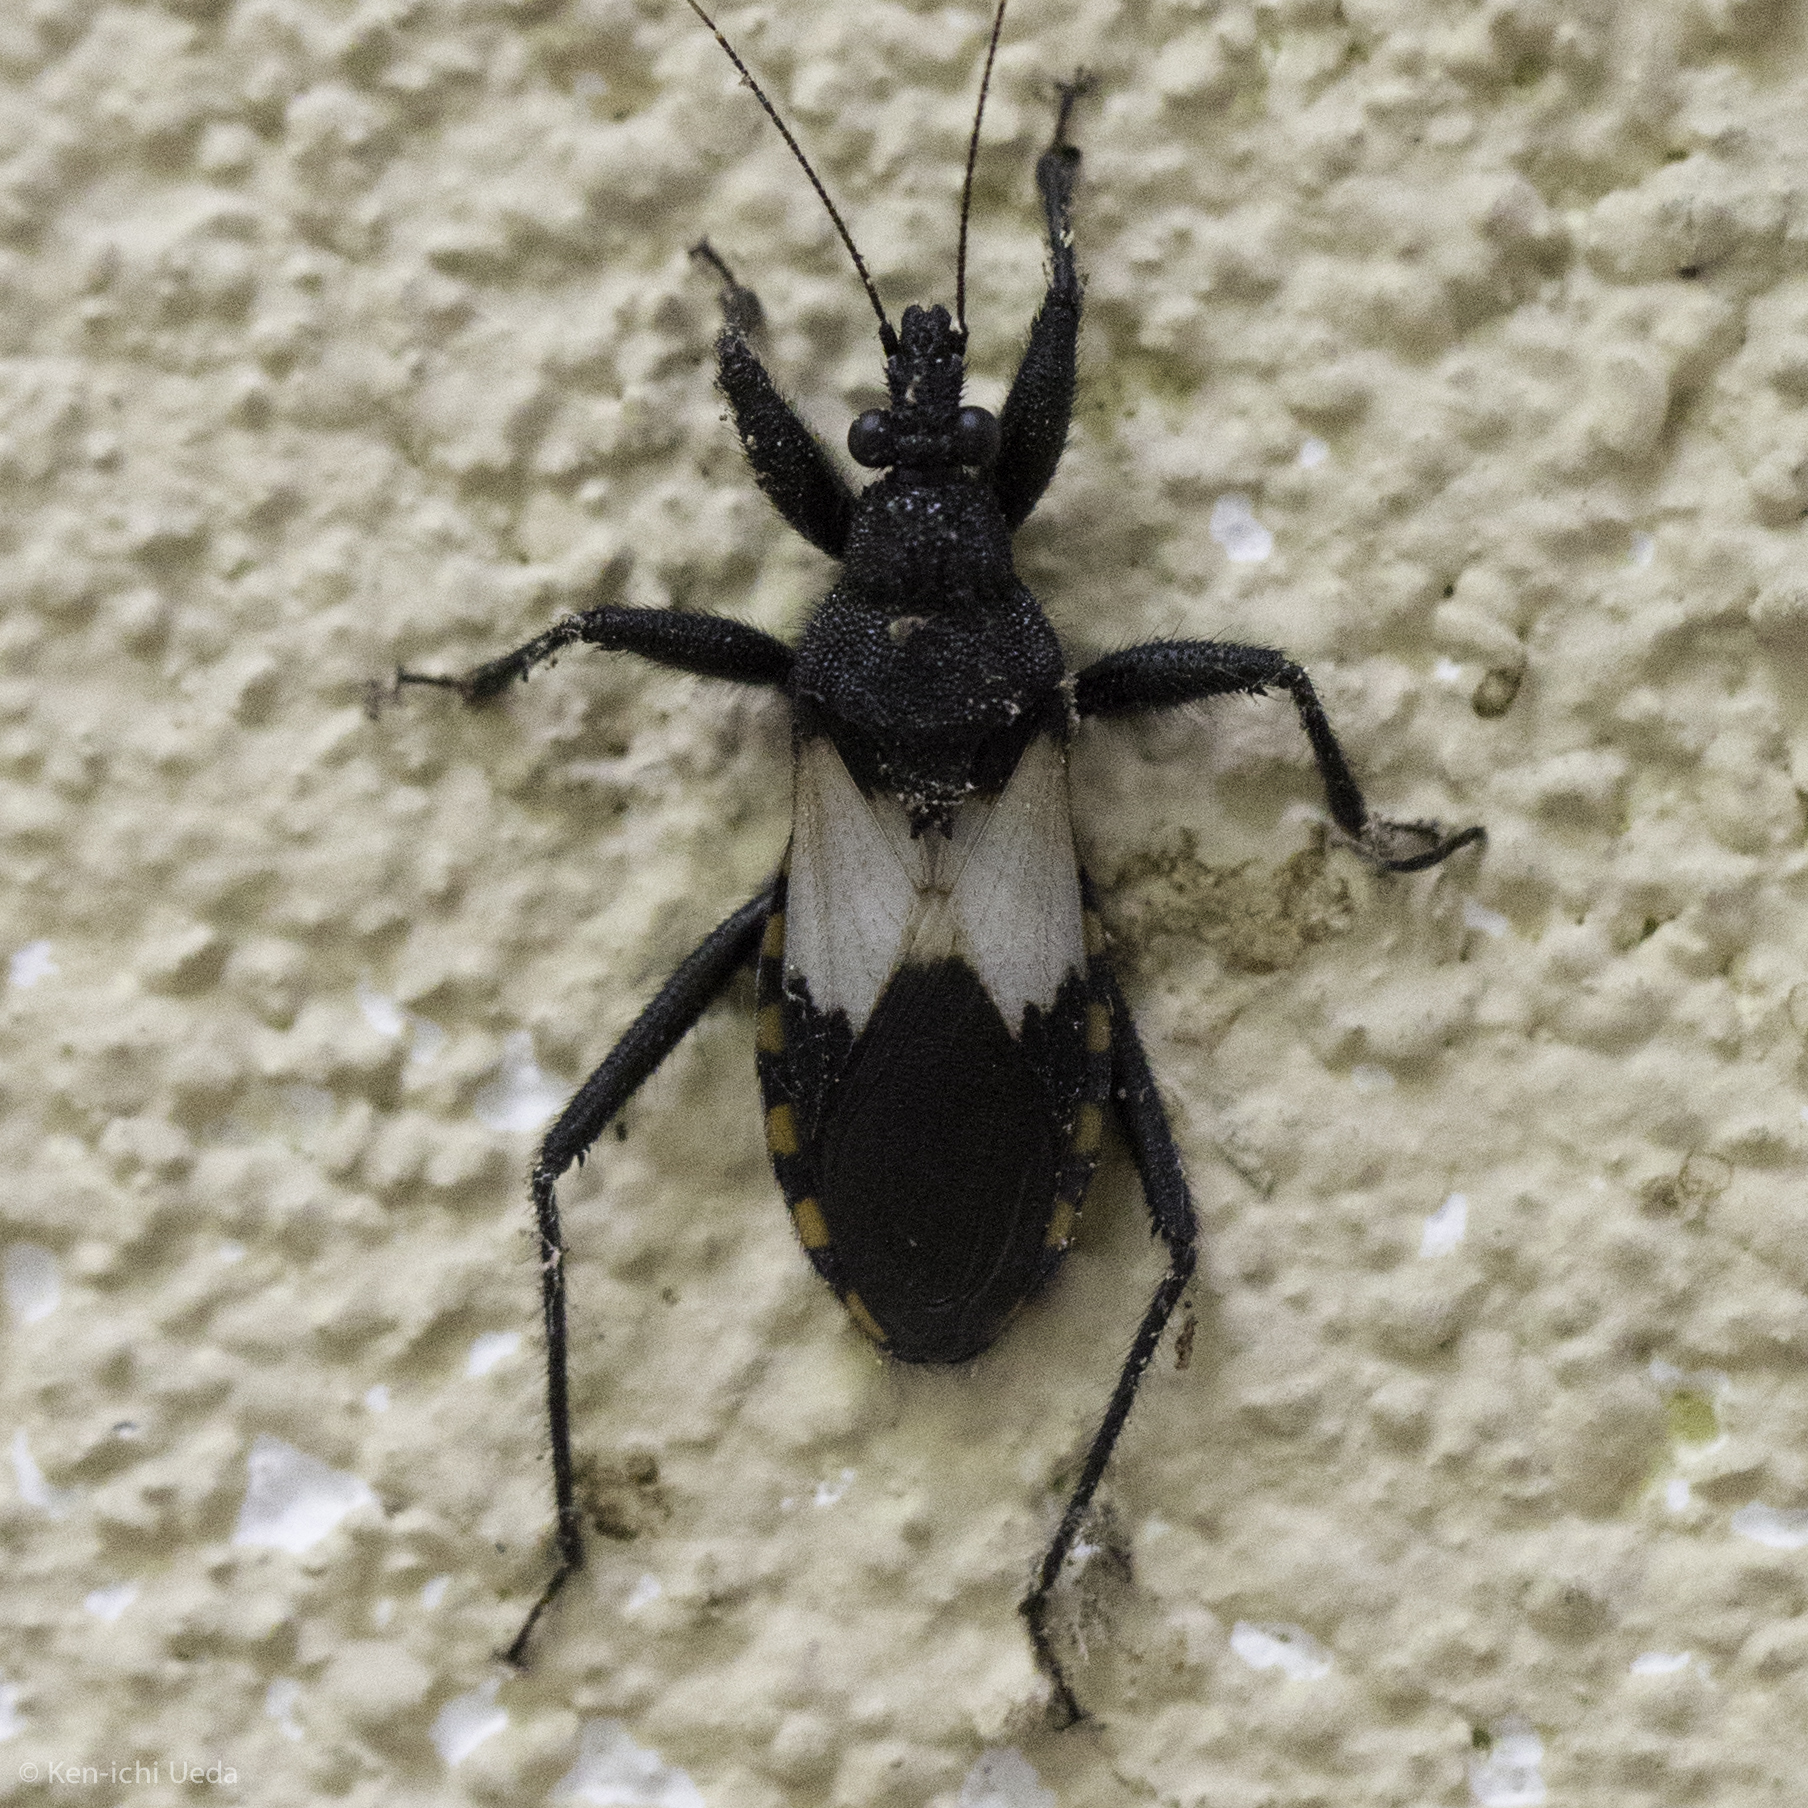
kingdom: Animalia
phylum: Arthropoda
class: Insecta
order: Hemiptera
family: Reduviidae
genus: Microtomus
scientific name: Microtomus luctuosus
